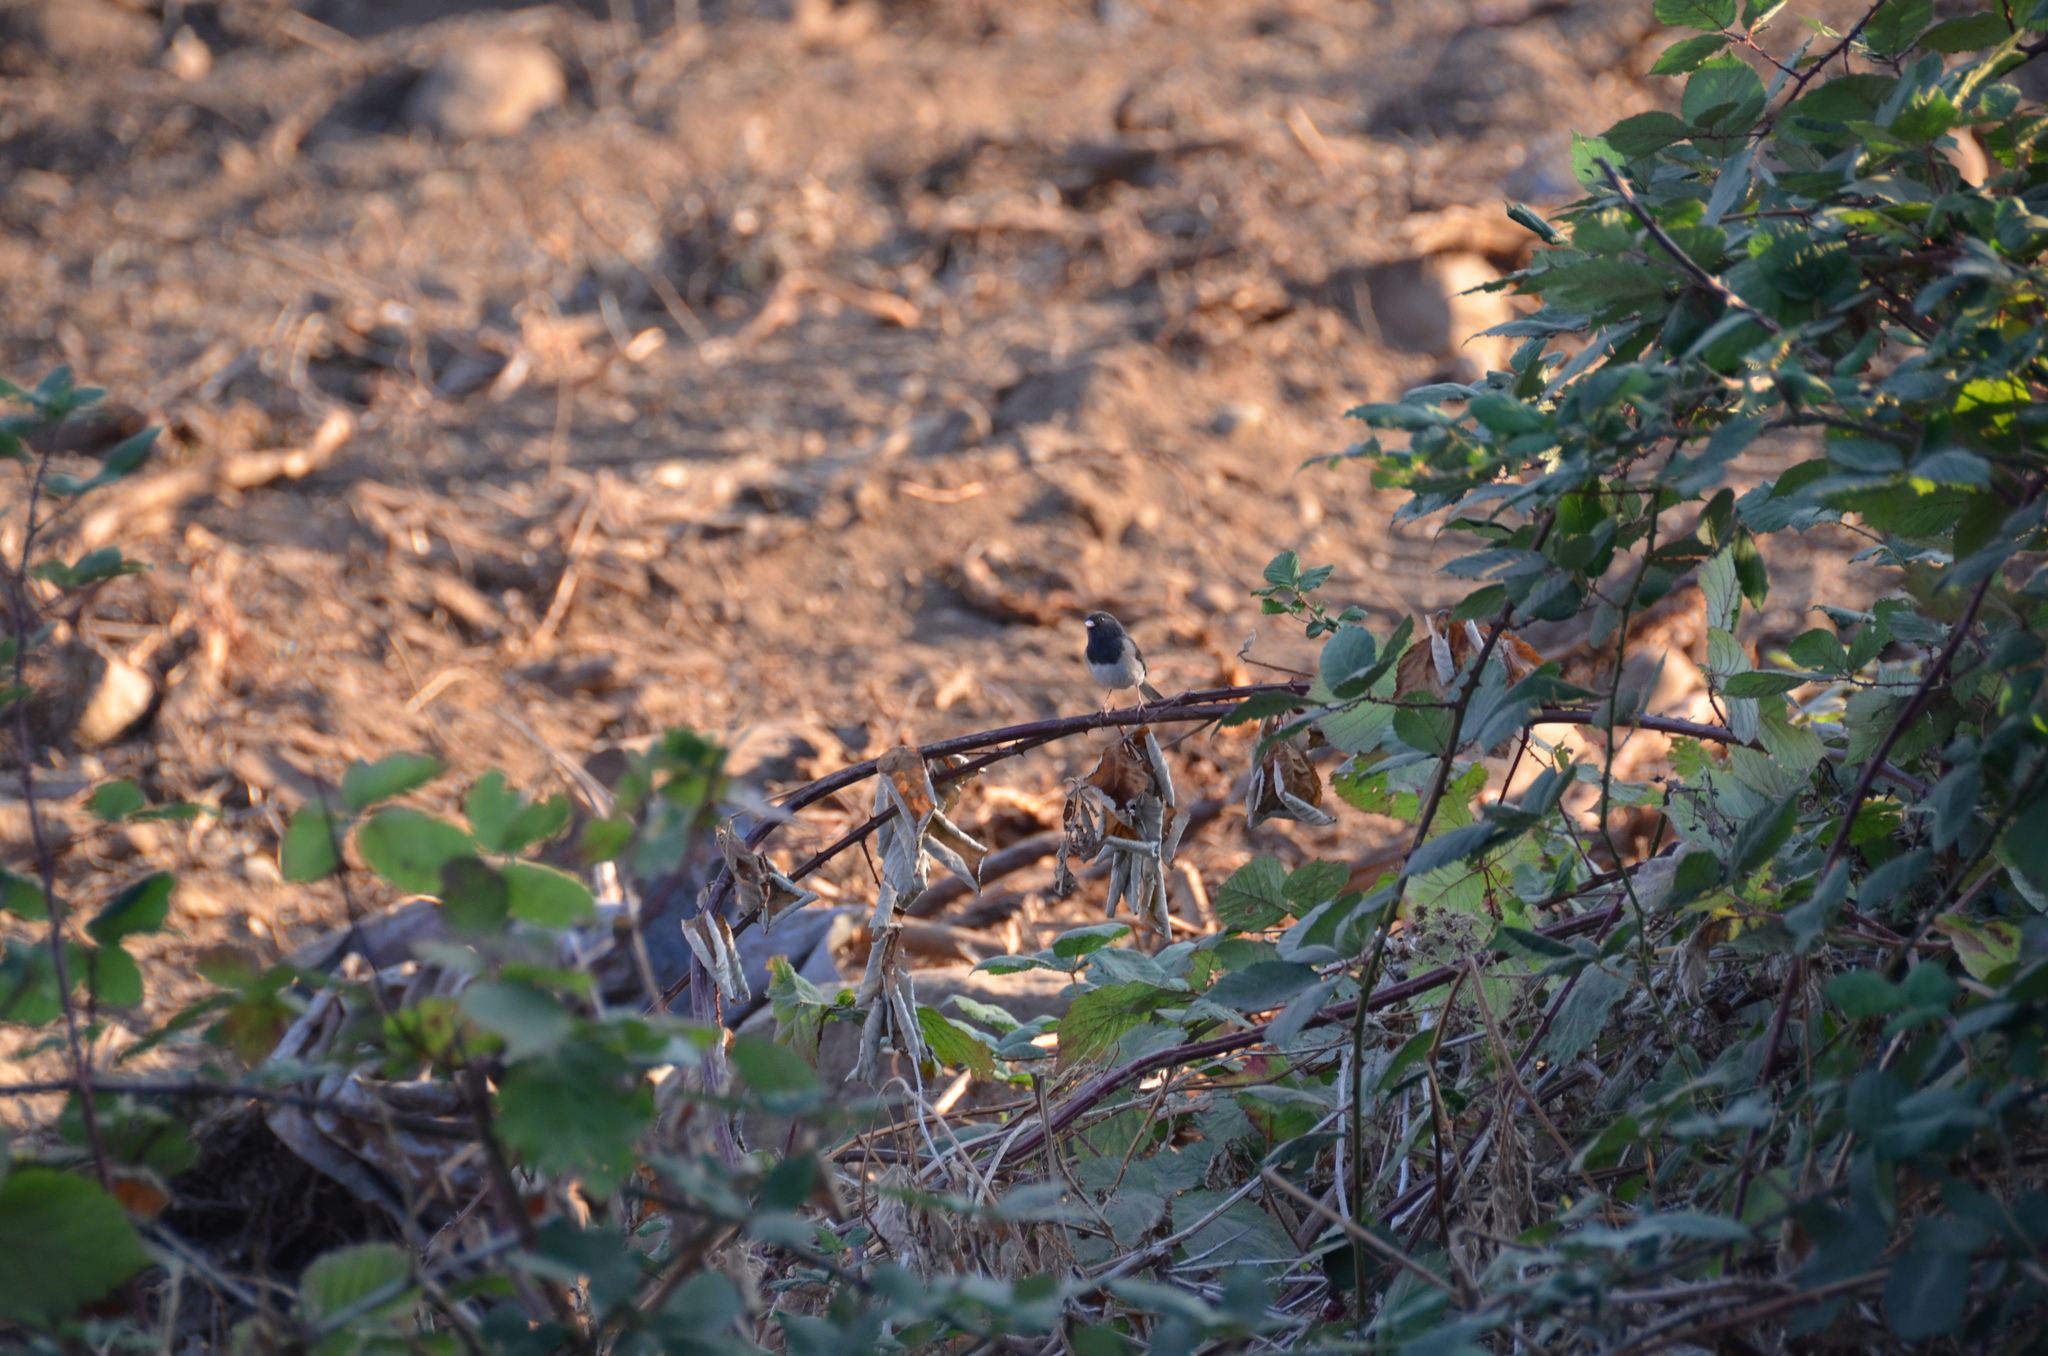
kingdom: Animalia
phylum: Chordata
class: Aves
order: Passeriformes
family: Passerellidae
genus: Junco
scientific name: Junco hyemalis
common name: Dark-eyed junco
